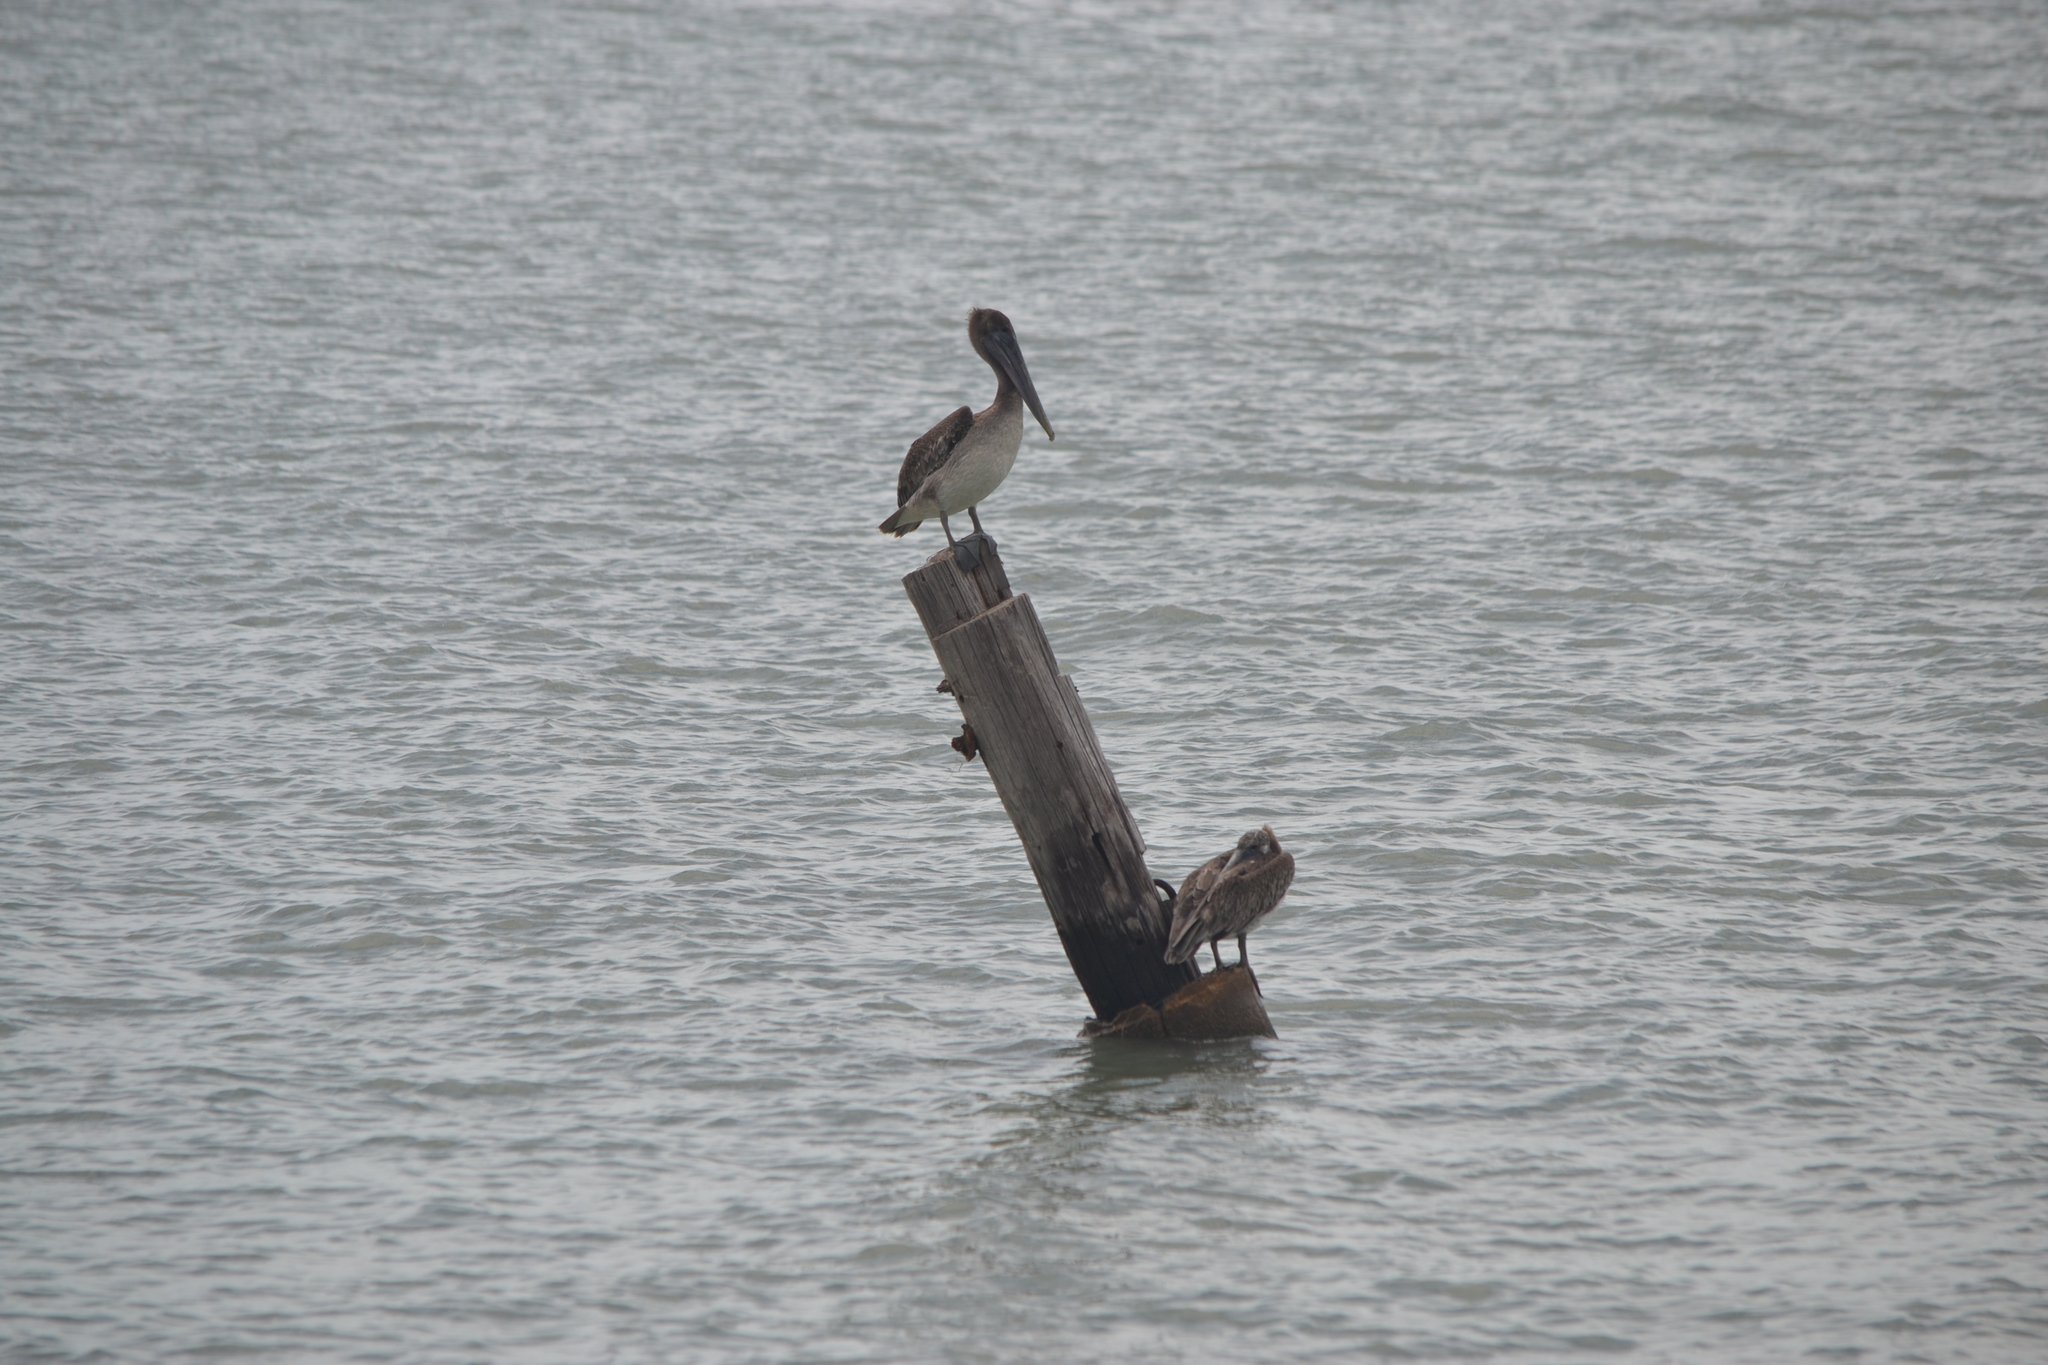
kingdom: Animalia
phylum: Chordata
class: Aves
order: Pelecaniformes
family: Pelecanidae
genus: Pelecanus
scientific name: Pelecanus occidentalis
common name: Brown pelican
